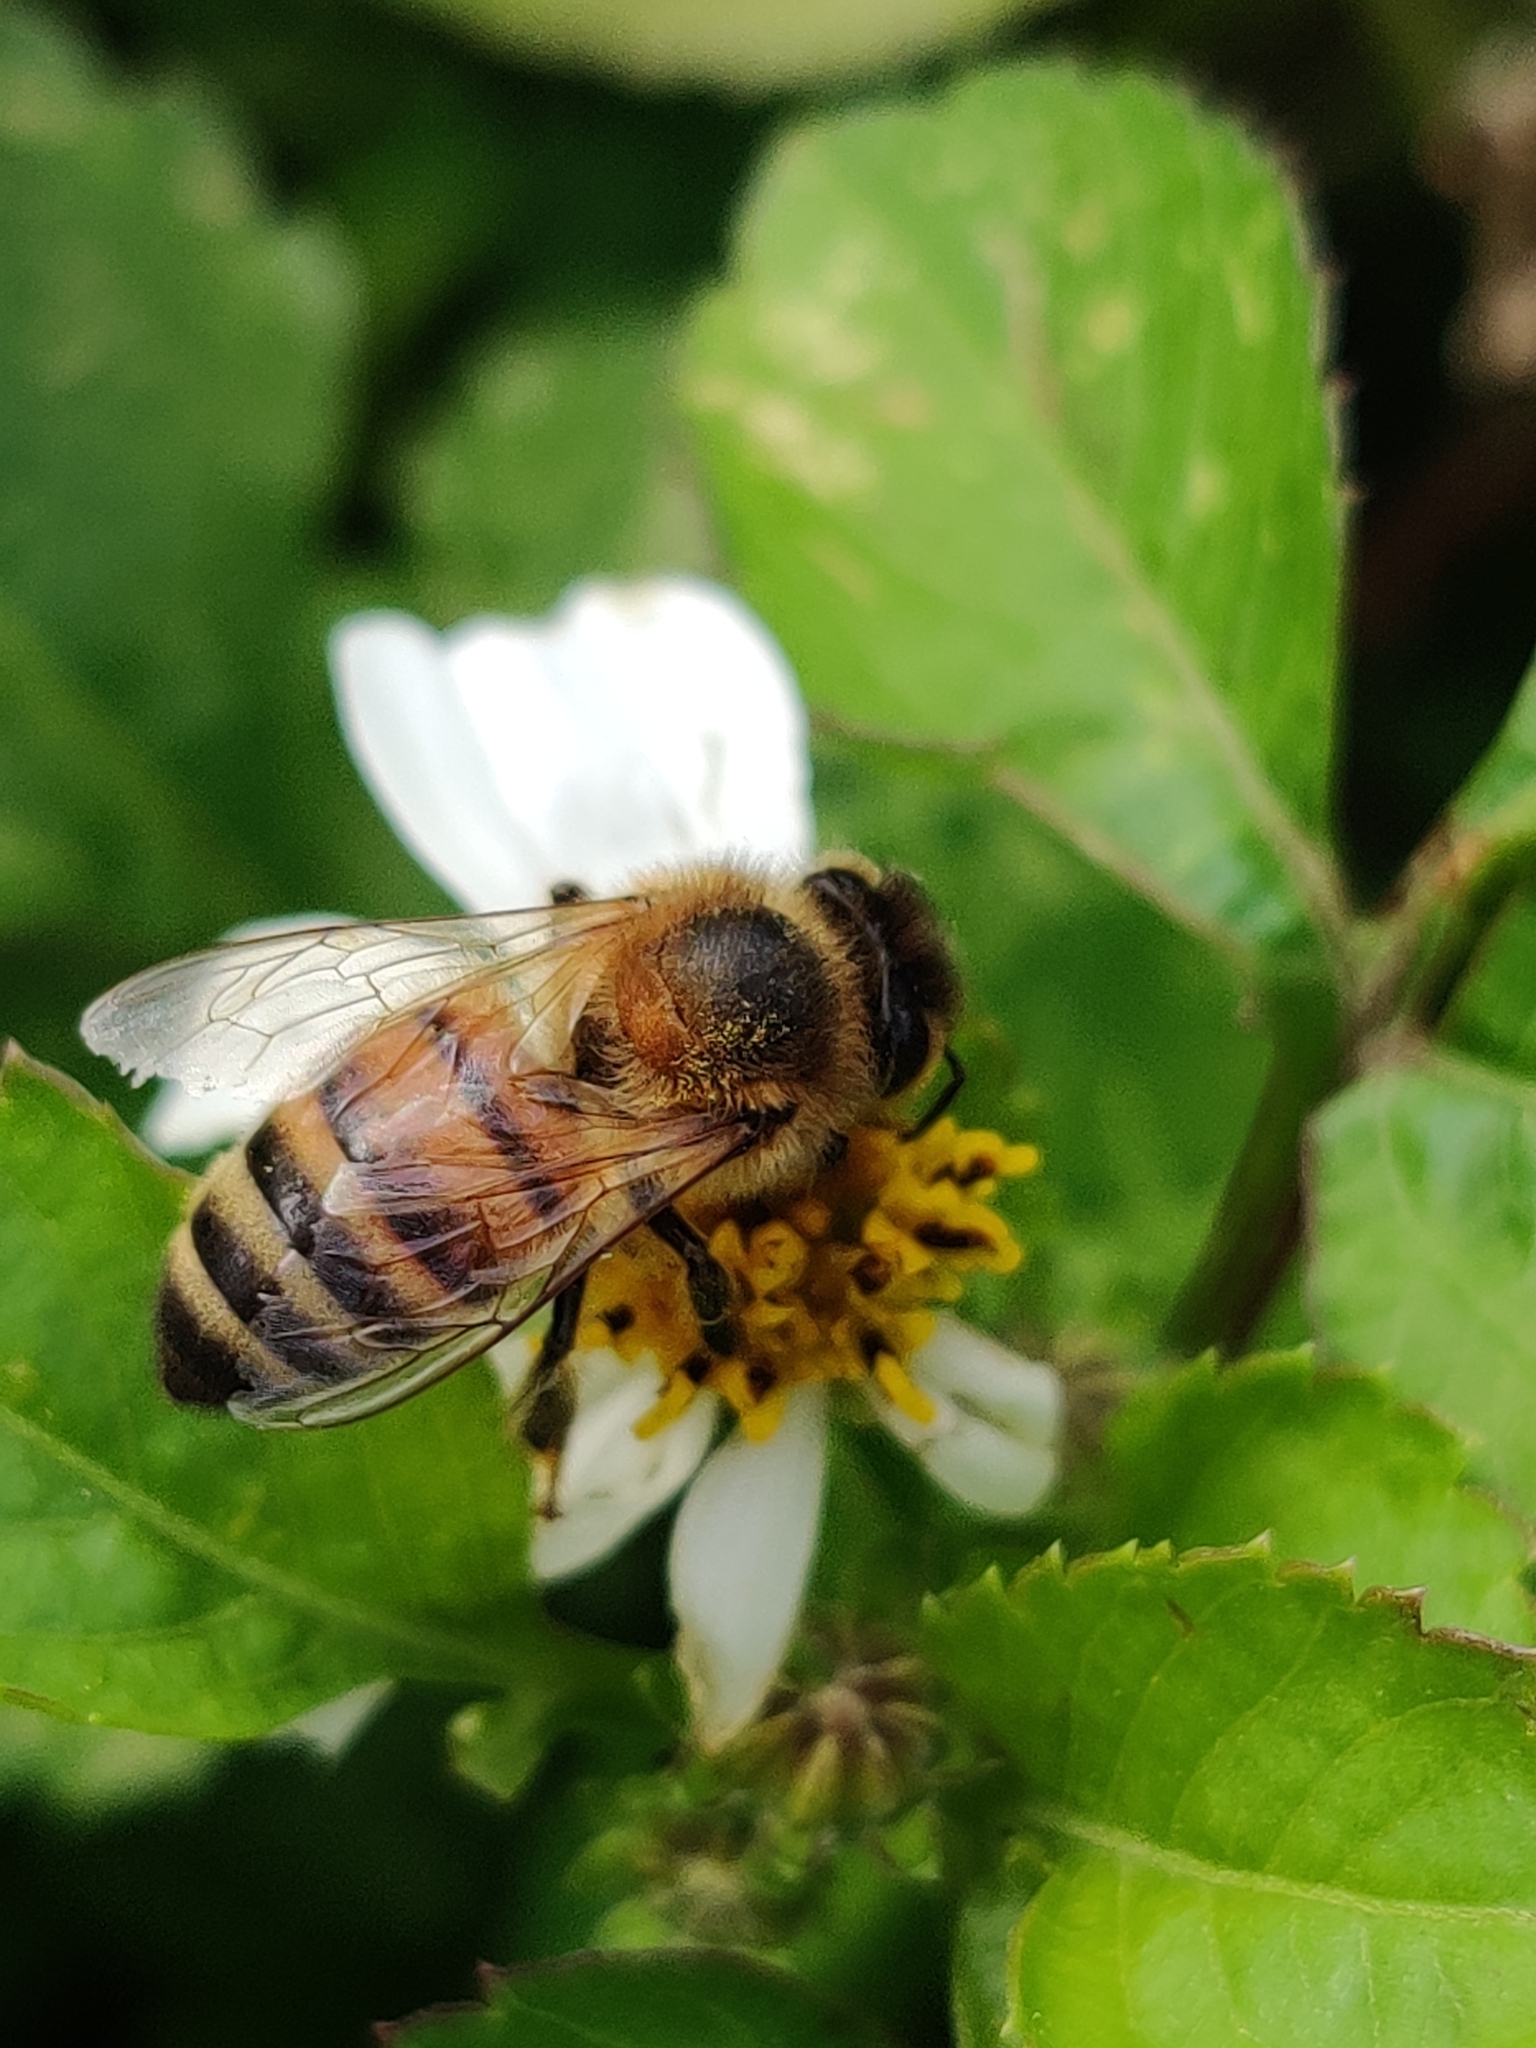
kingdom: Animalia
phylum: Arthropoda
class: Insecta
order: Hymenoptera
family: Apidae
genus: Apis
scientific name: Apis mellifera
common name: Honey bee
